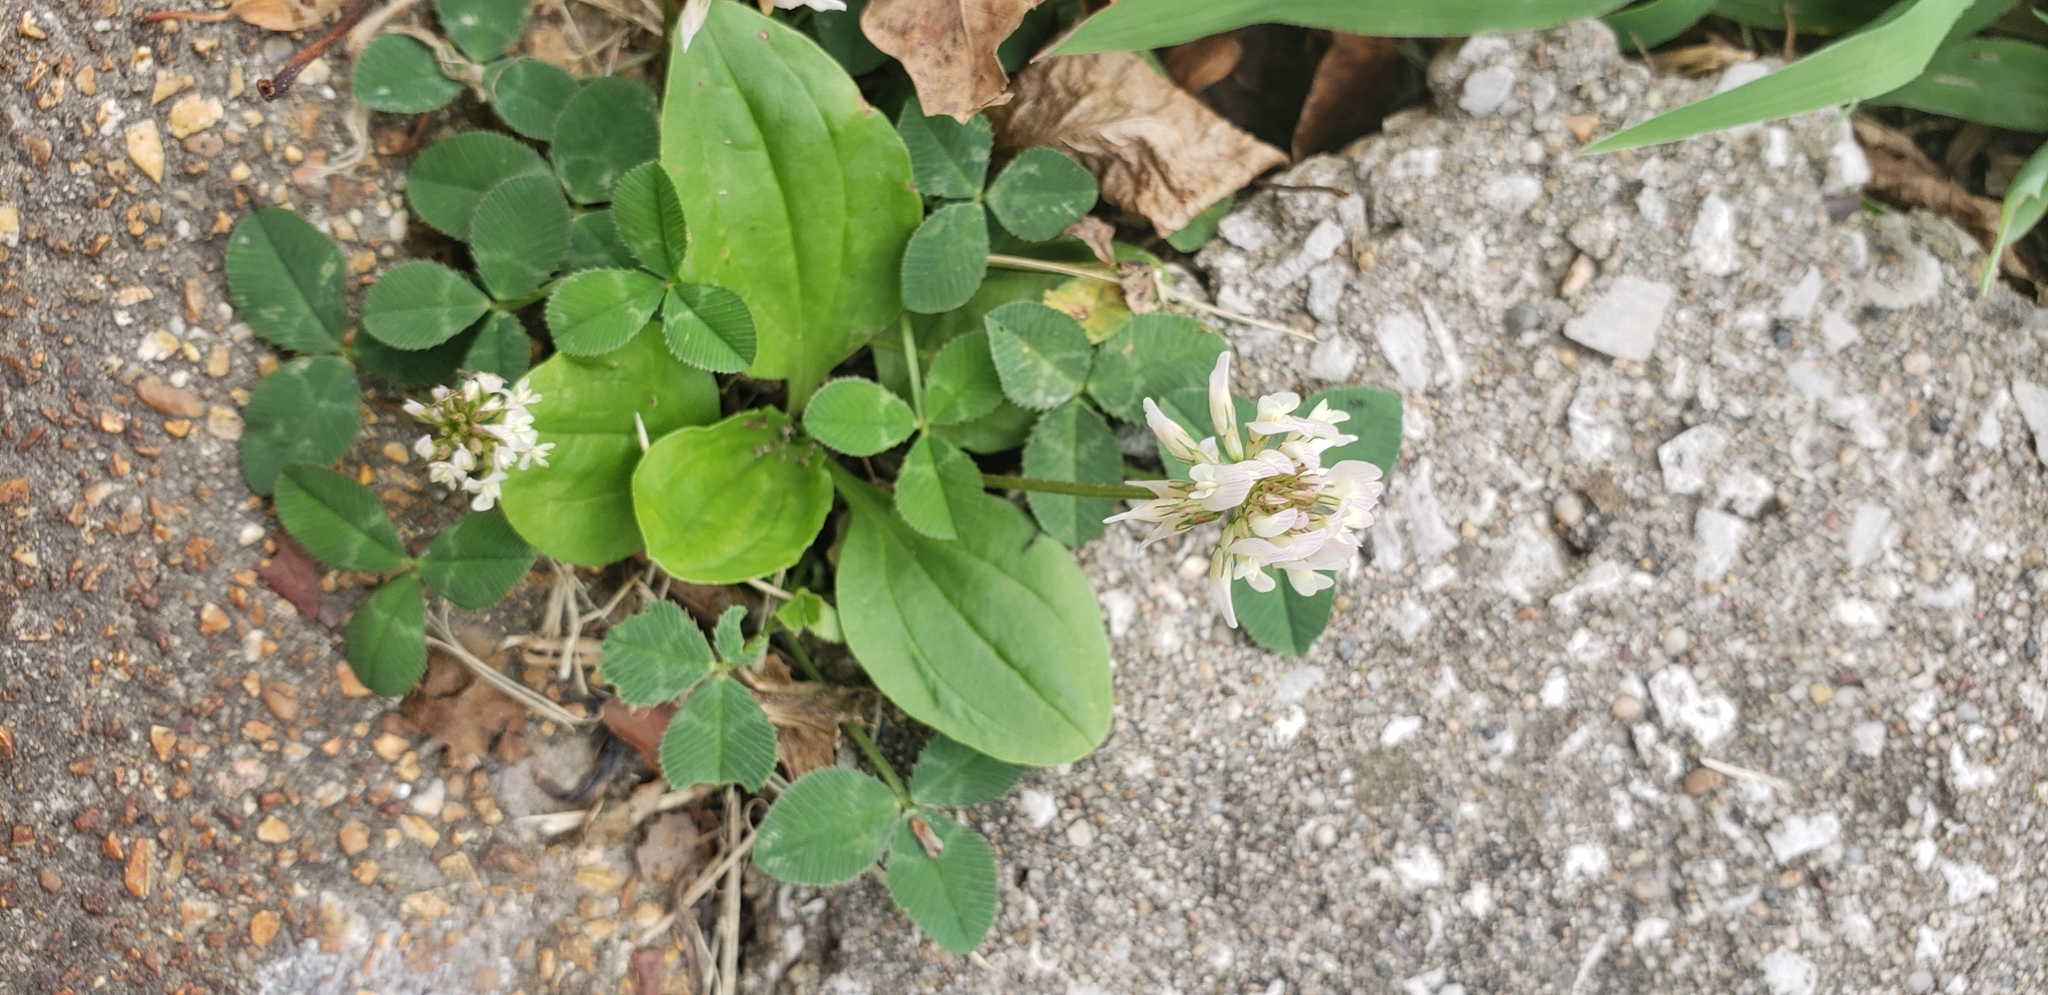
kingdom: Plantae
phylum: Tracheophyta
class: Magnoliopsida
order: Fabales
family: Fabaceae
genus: Trifolium
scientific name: Trifolium repens
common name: White clover
